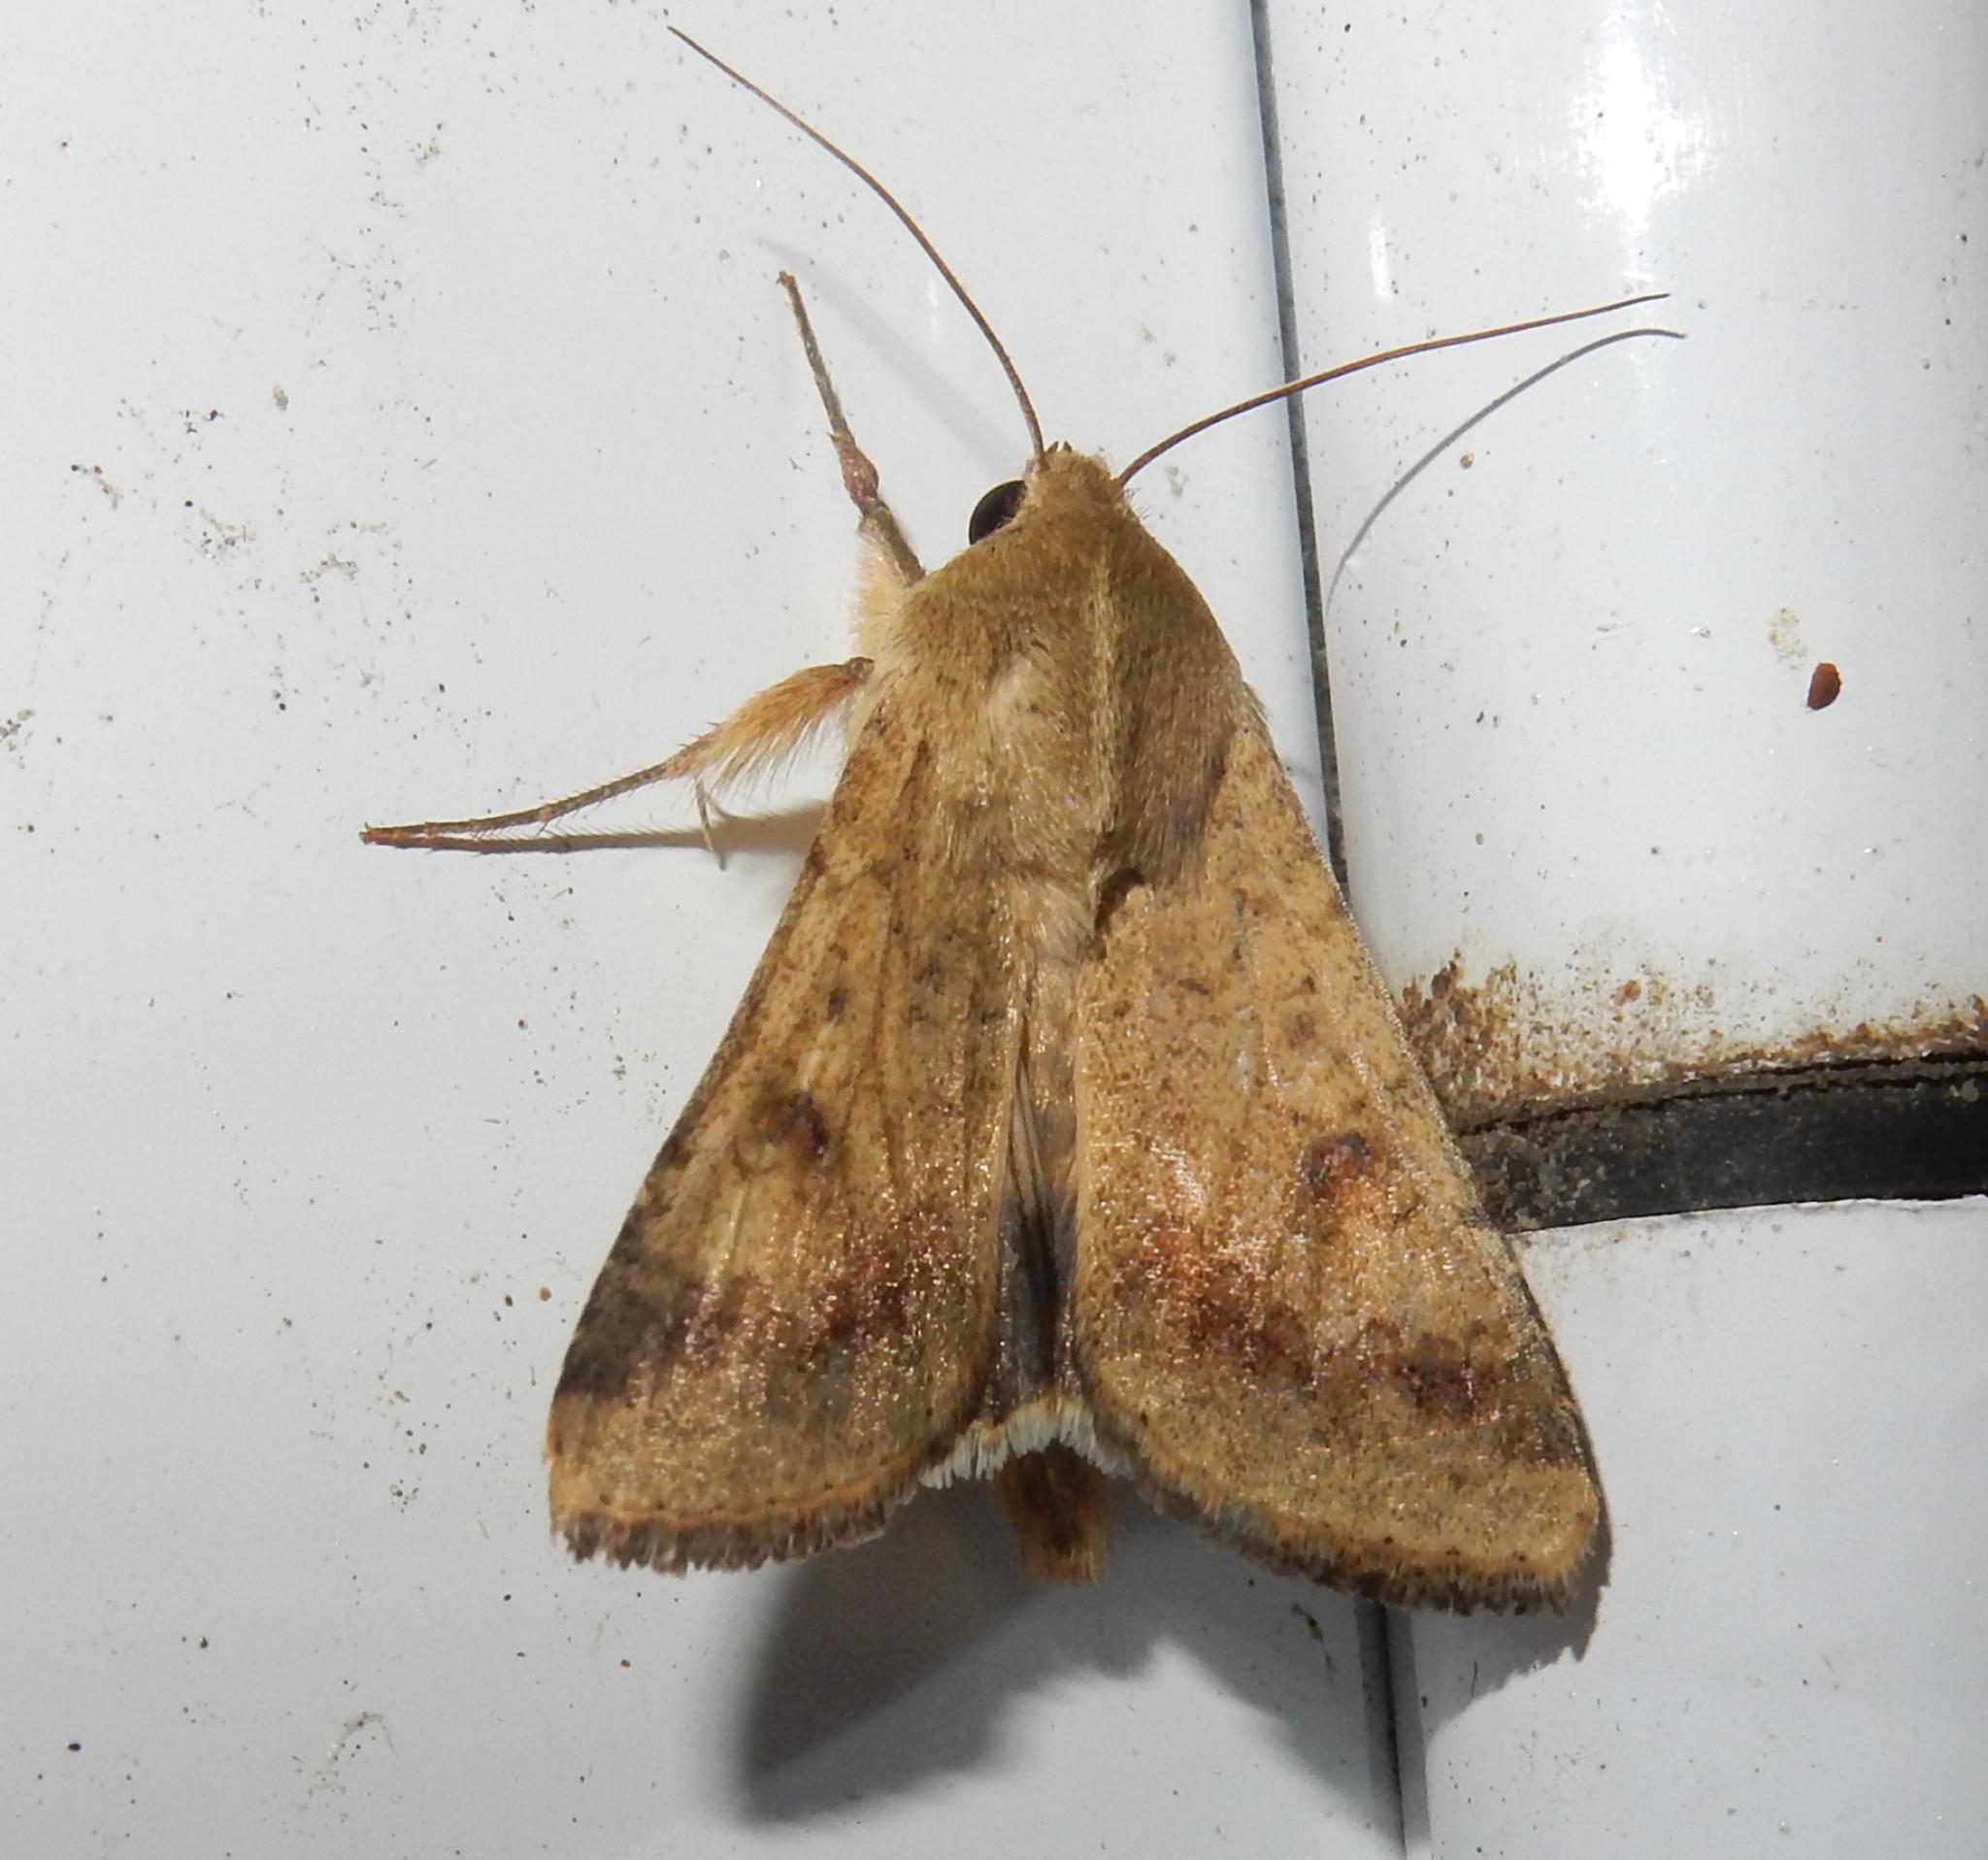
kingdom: Animalia
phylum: Arthropoda
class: Insecta
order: Lepidoptera
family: Noctuidae
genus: Helicoverpa
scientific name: Helicoverpa armigera
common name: Cotton bollworm
